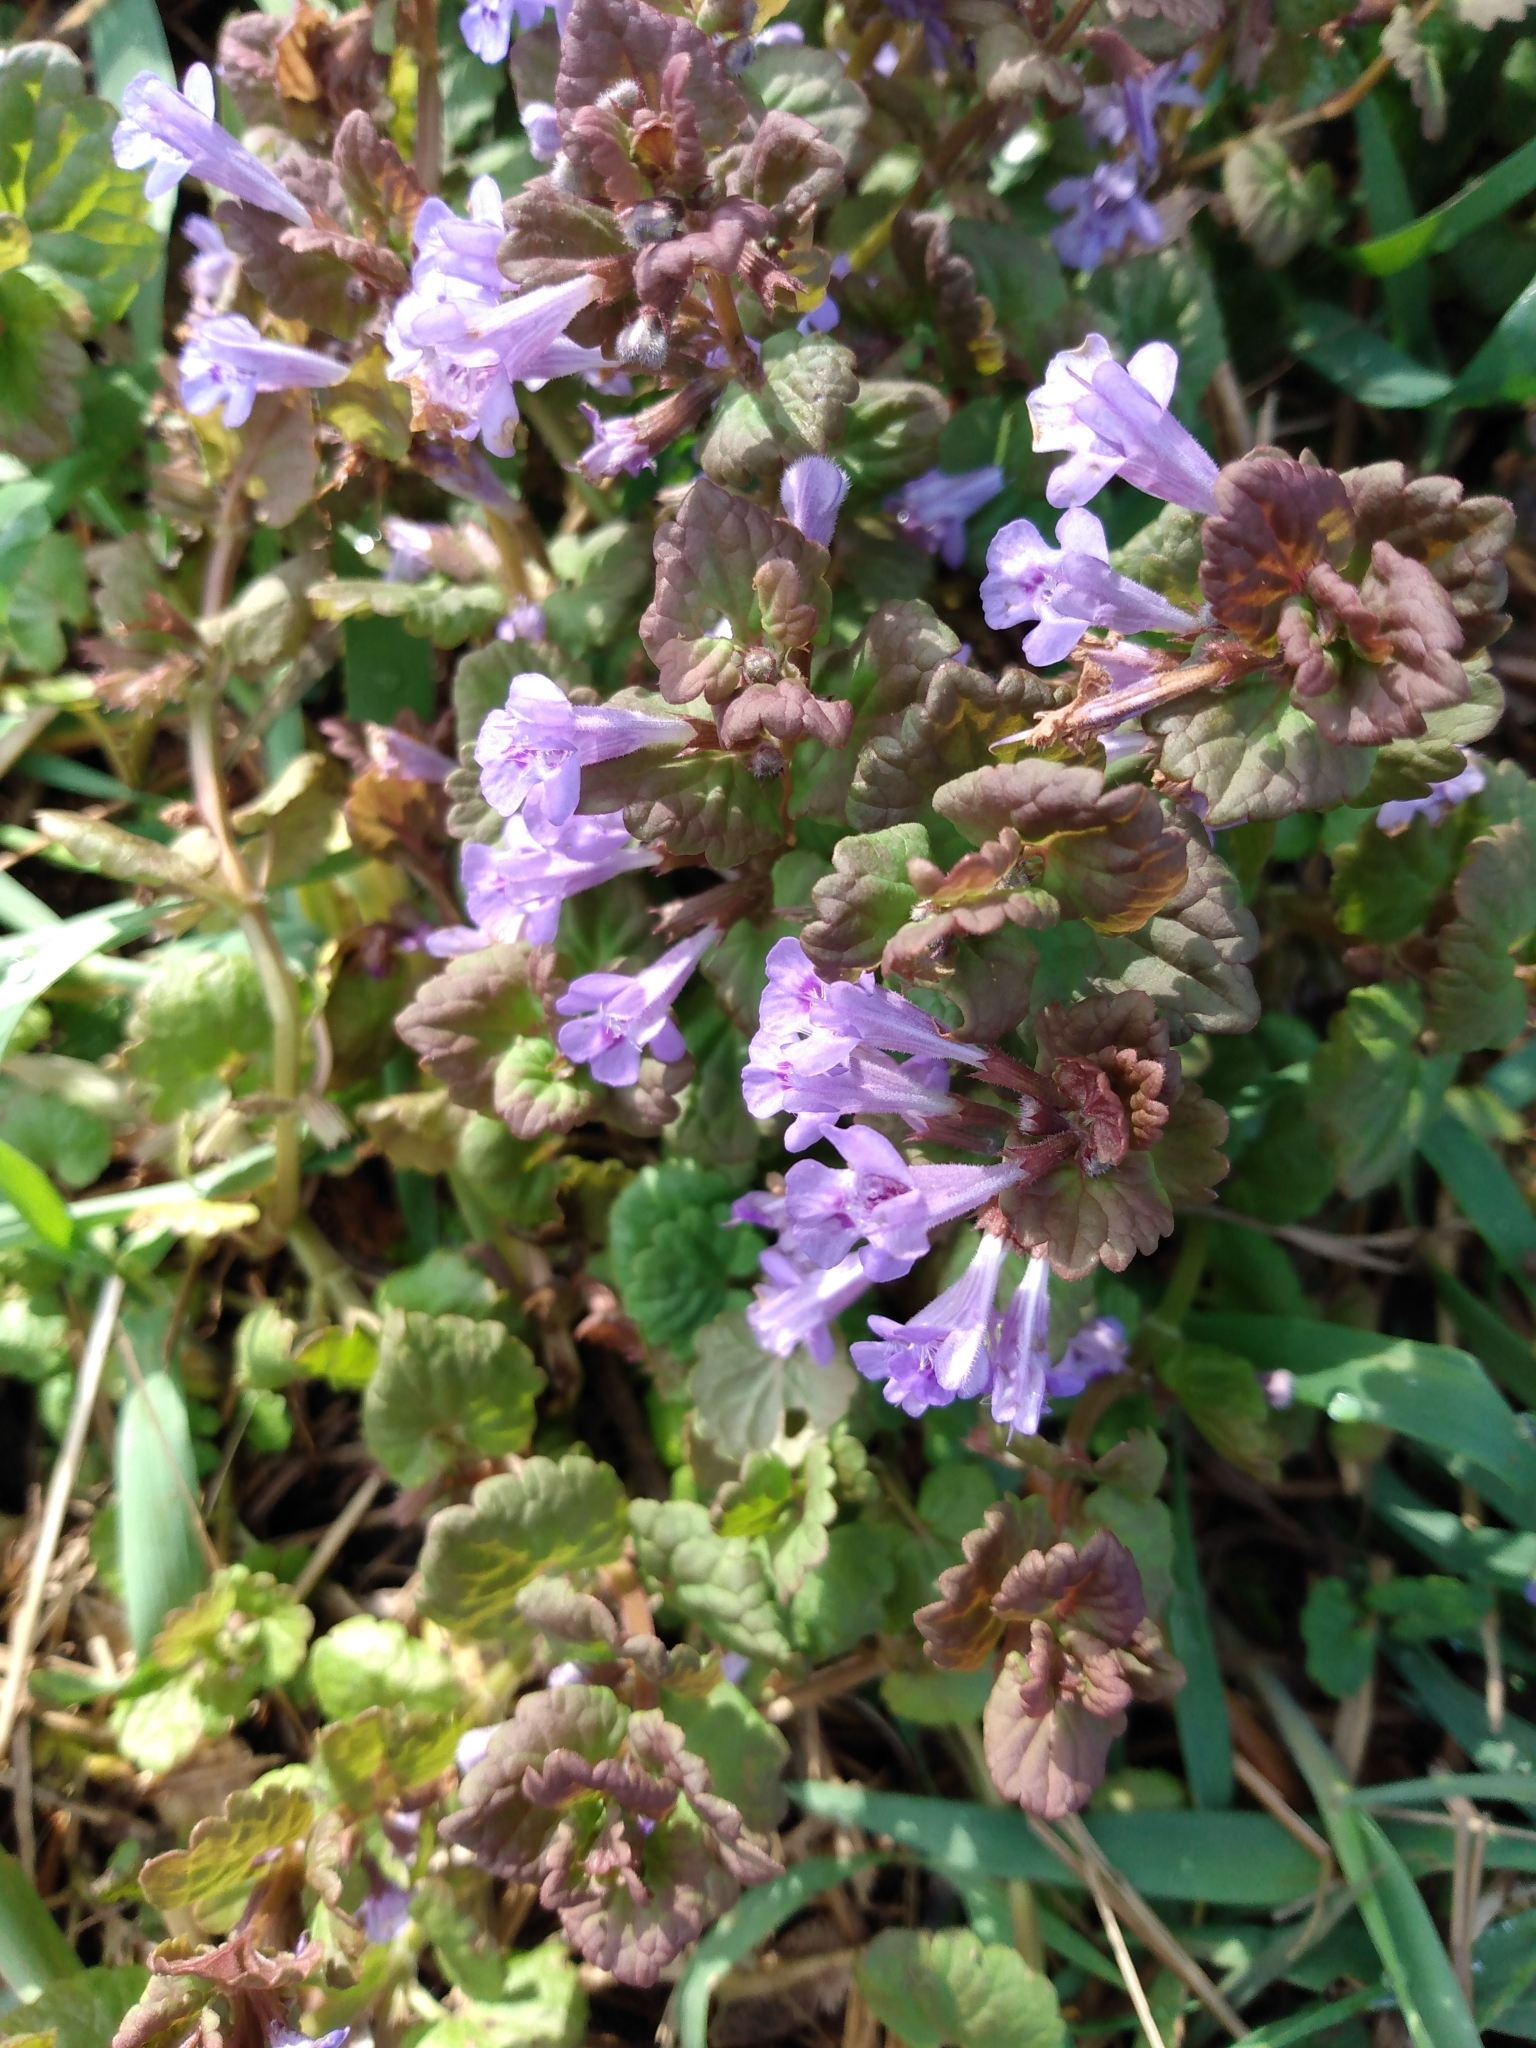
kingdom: Plantae
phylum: Tracheophyta
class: Magnoliopsida
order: Lamiales
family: Lamiaceae
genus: Glechoma
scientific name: Glechoma hederacea
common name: Ground ivy
